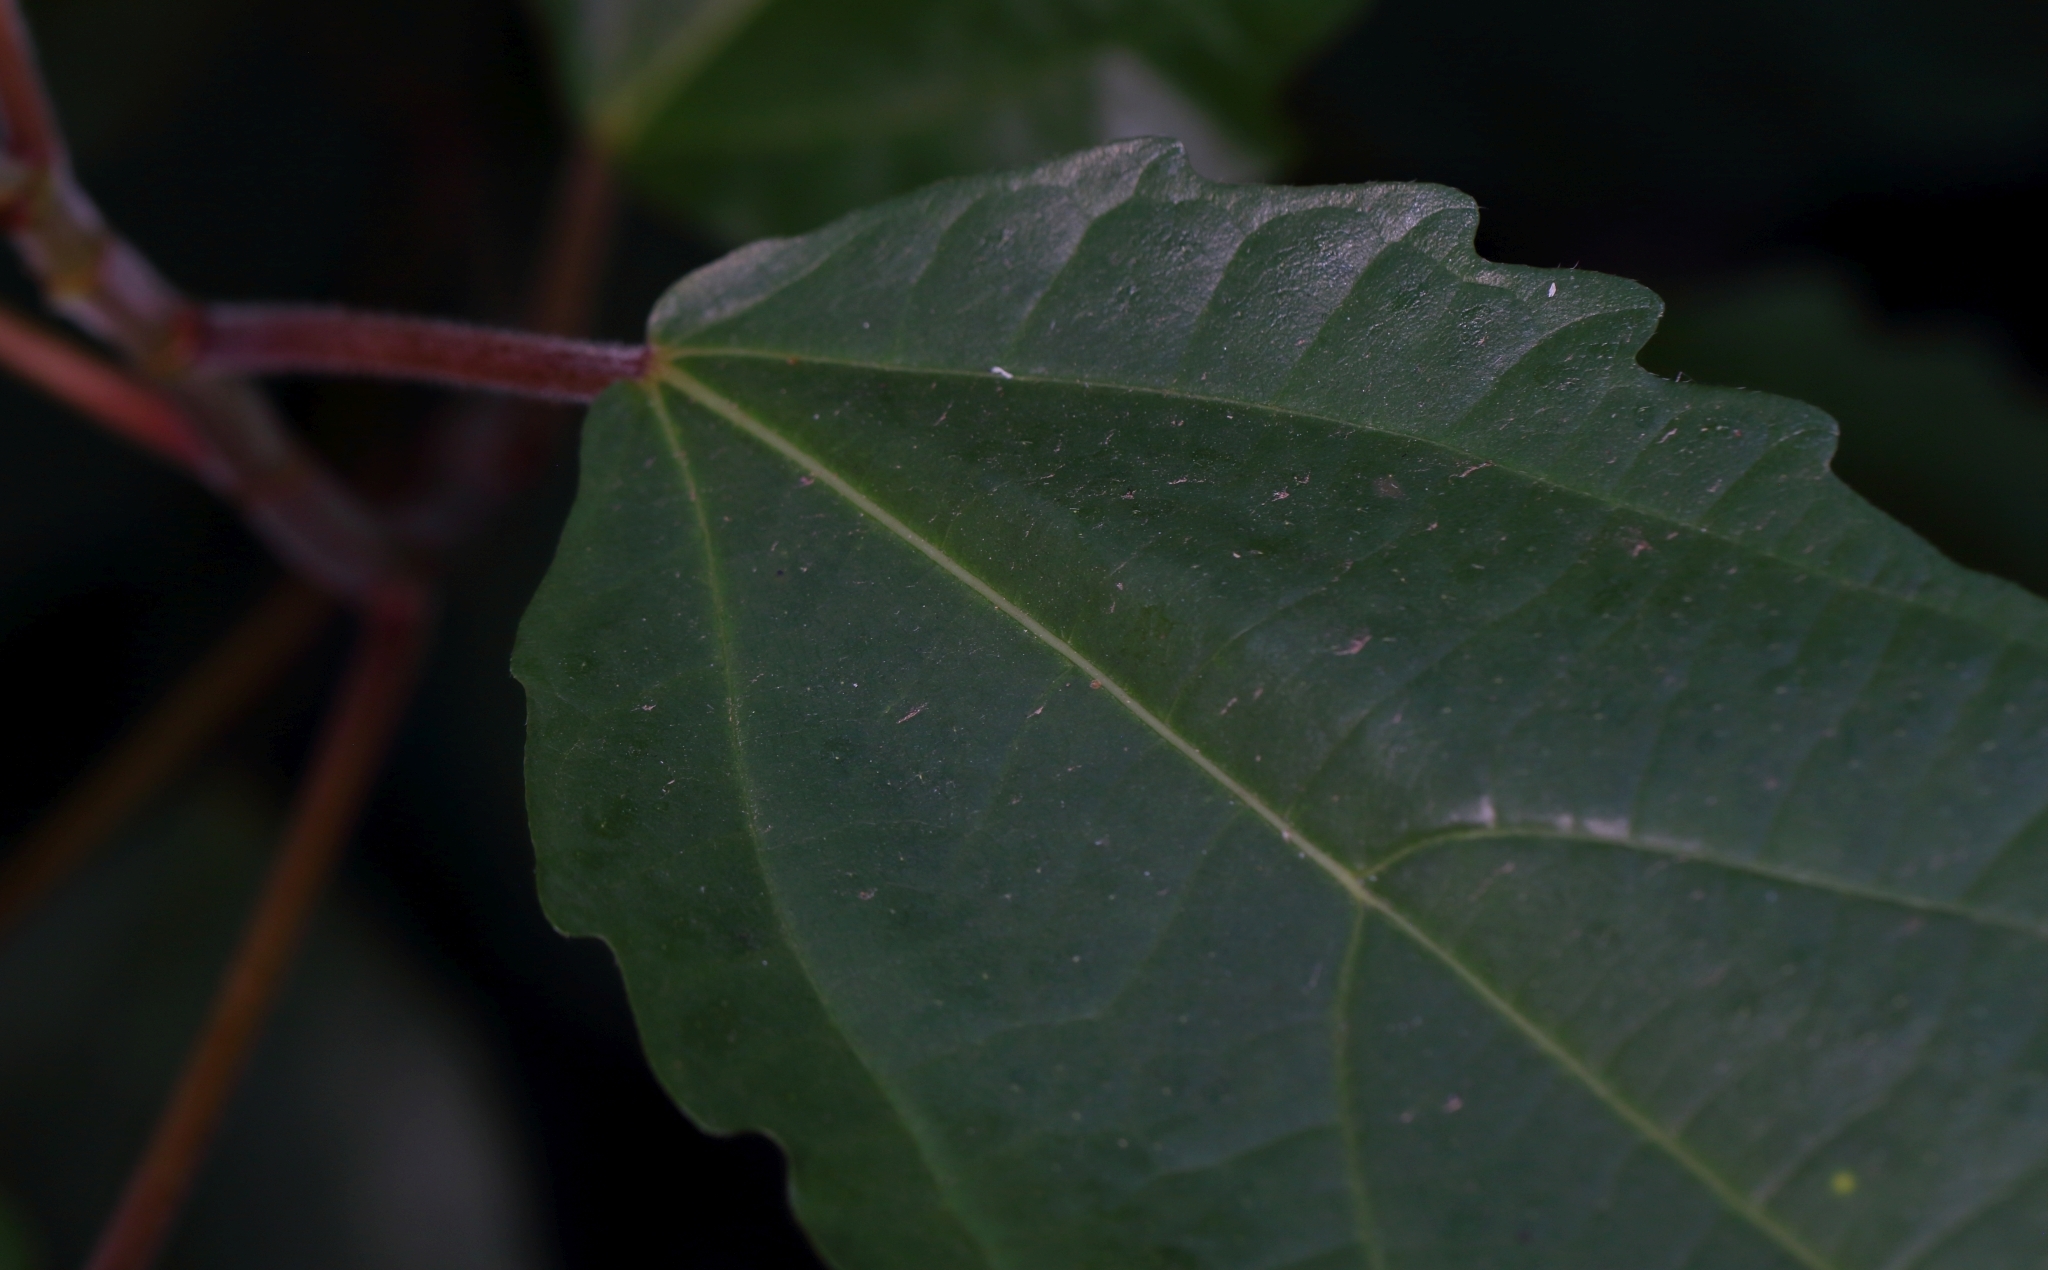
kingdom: Plantae
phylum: Tracheophyta
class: Magnoliopsida
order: Rosales
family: Moraceae
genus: Ficus
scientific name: Ficus sur
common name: Cape fig
